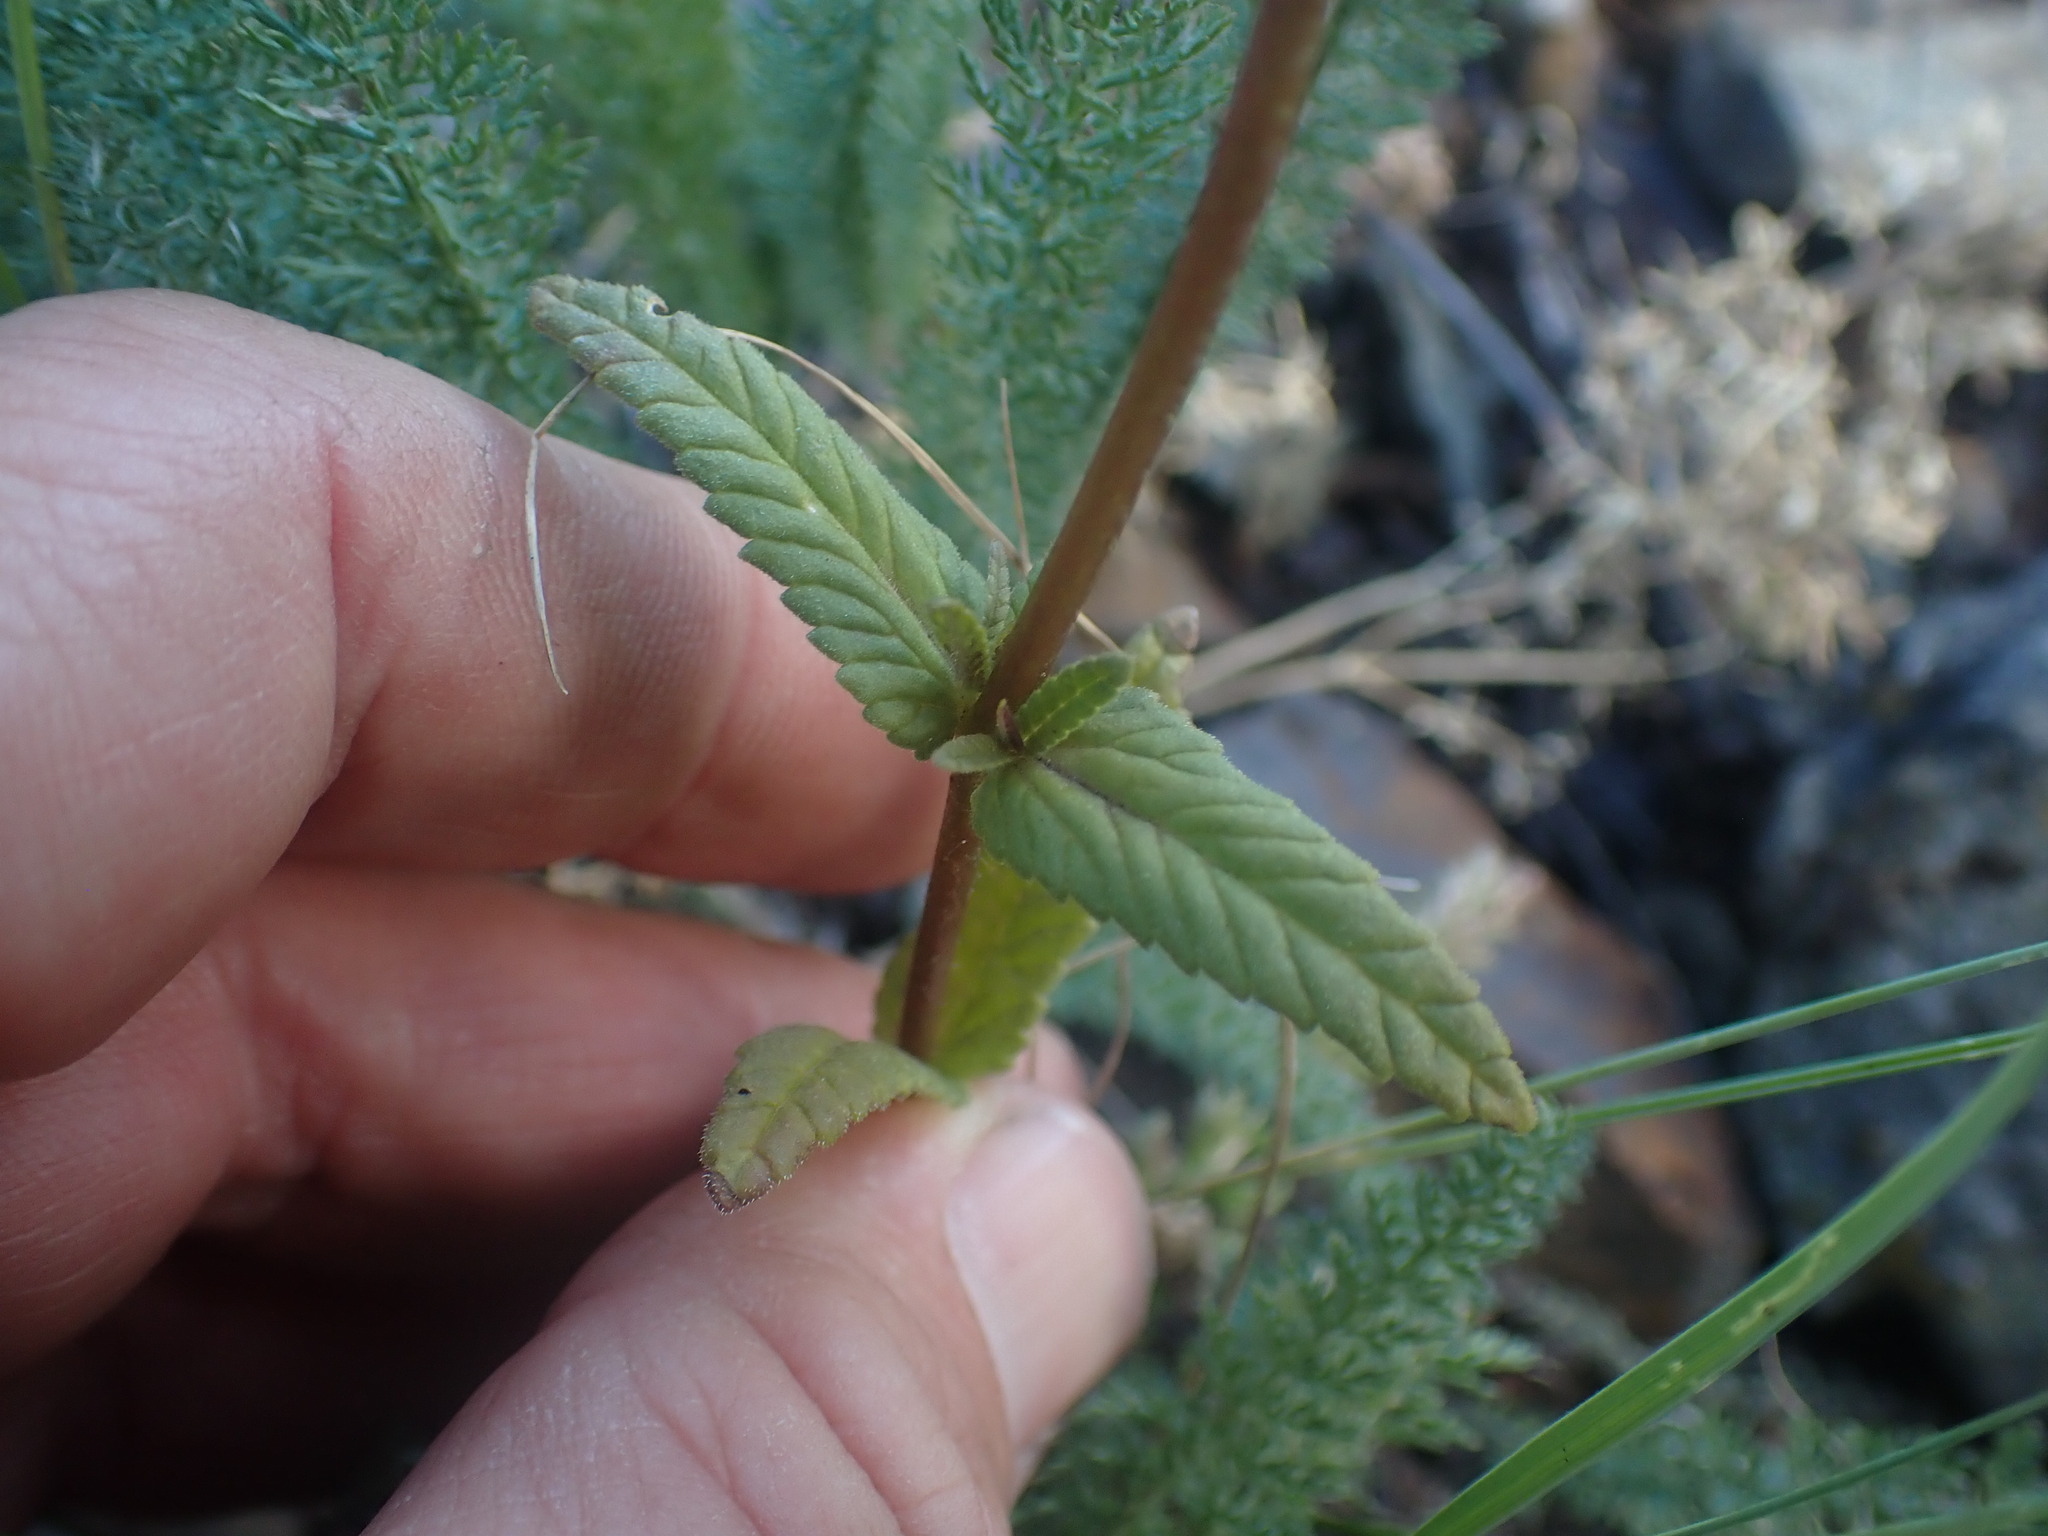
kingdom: Plantae
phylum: Tracheophyta
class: Magnoliopsida
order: Lamiales
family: Orobanchaceae
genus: Rhinanthus
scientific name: Rhinanthus minor
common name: Yellow-rattle
